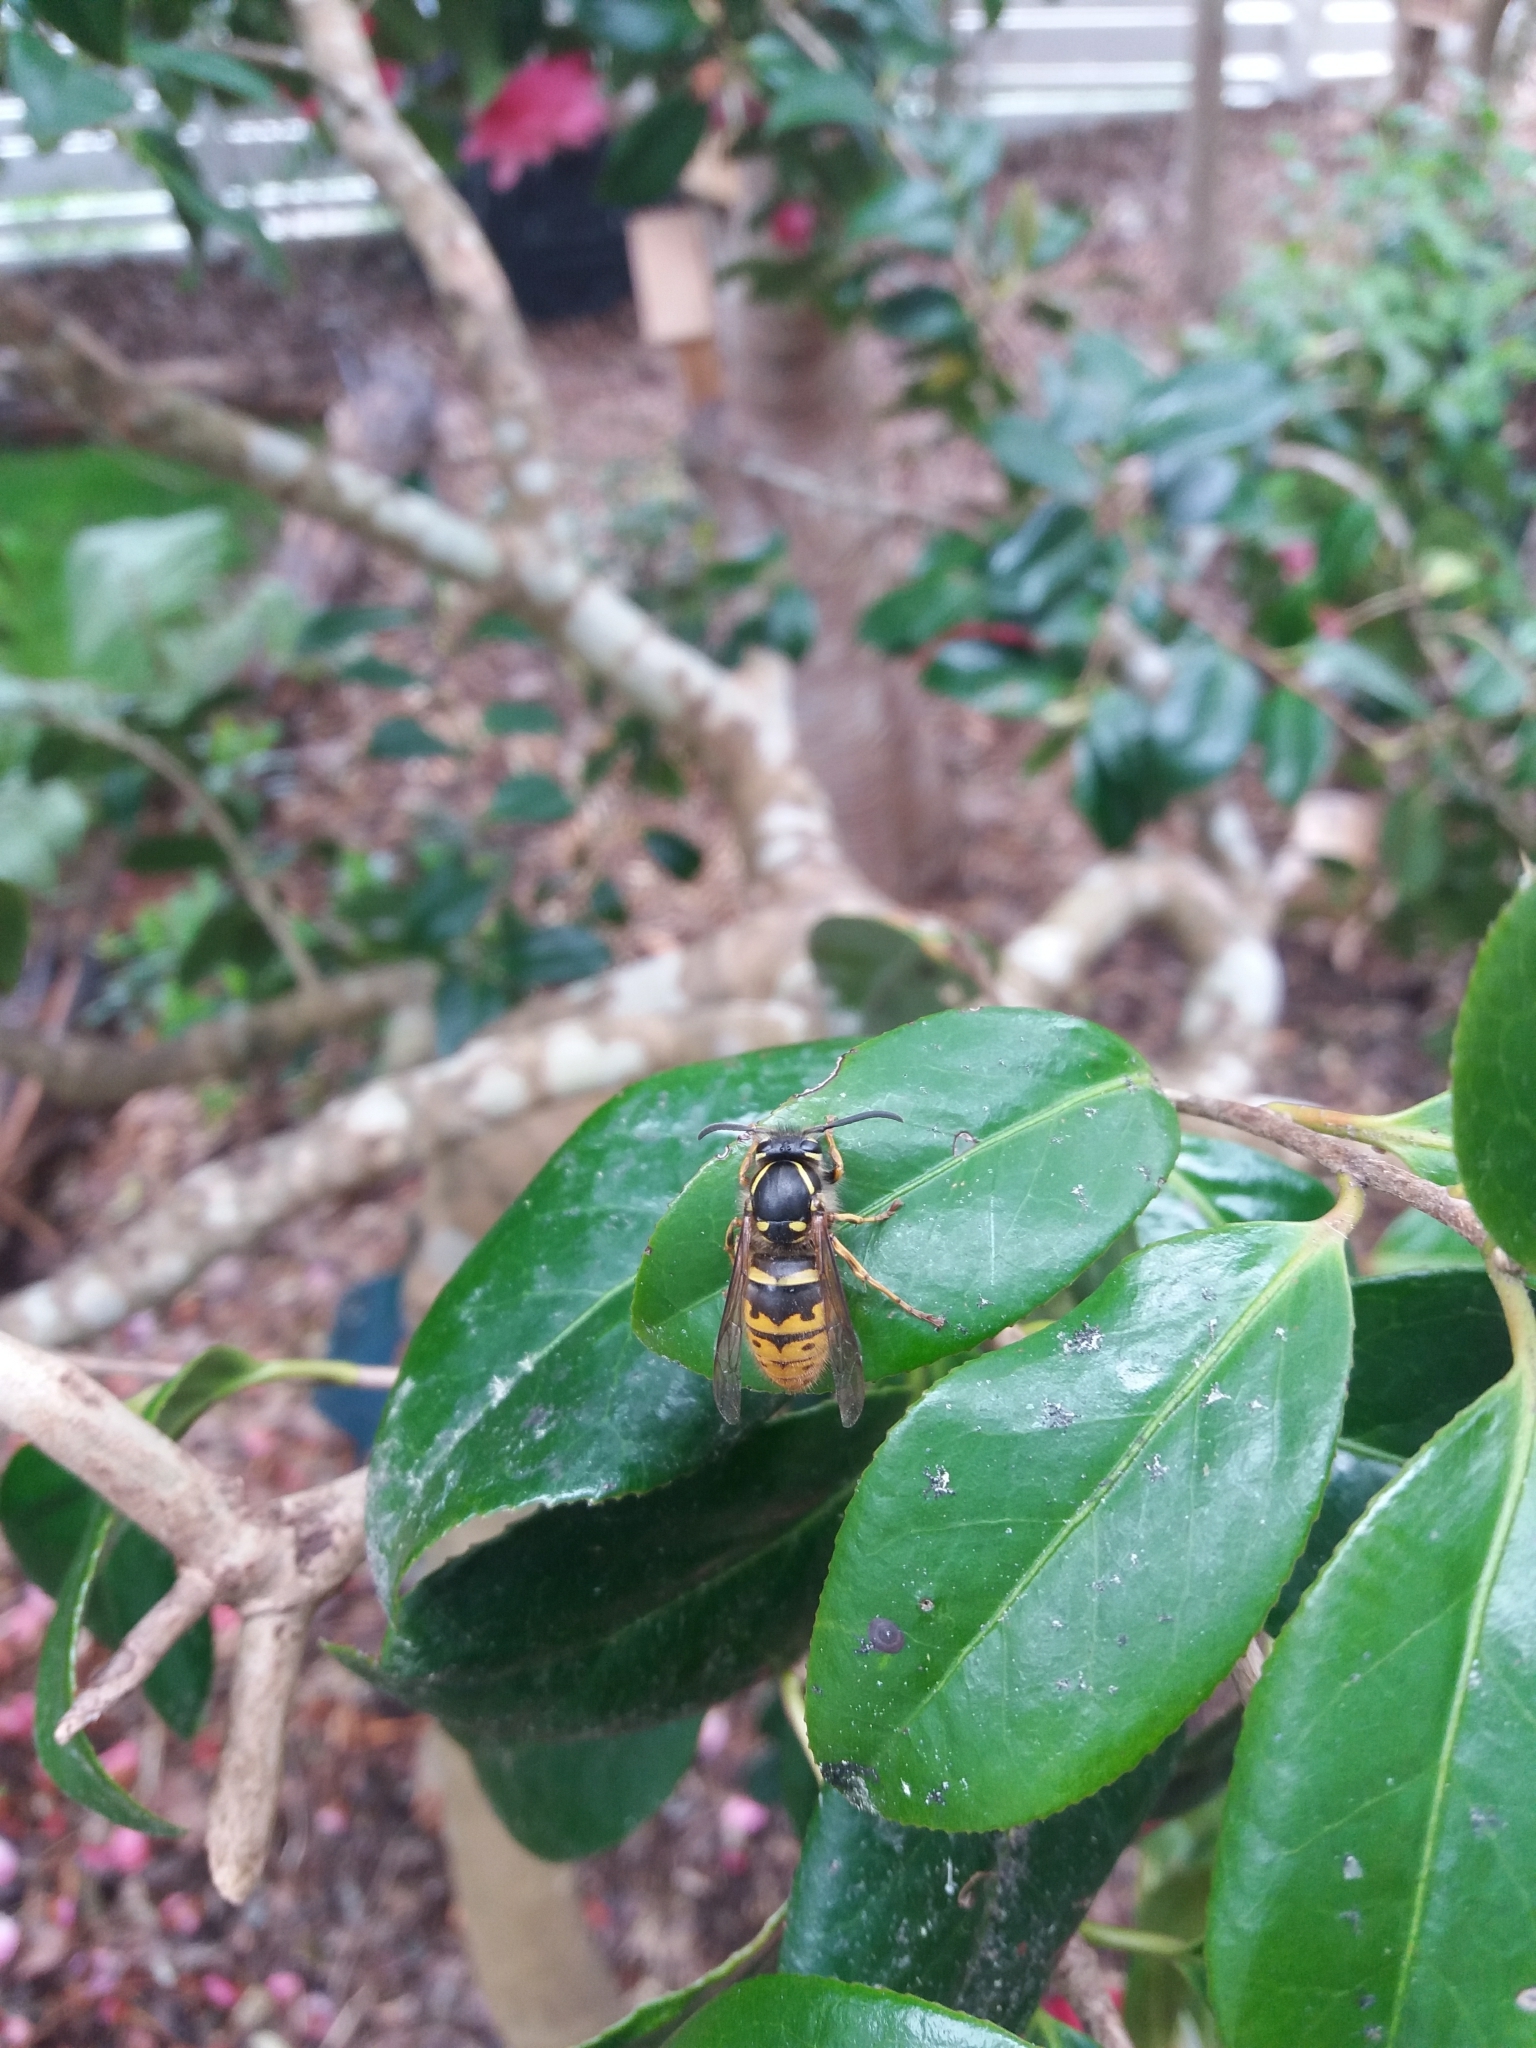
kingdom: Animalia
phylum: Arthropoda
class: Insecta
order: Hymenoptera
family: Vespidae
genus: Vespula
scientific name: Vespula vulgaris
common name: Common wasp
